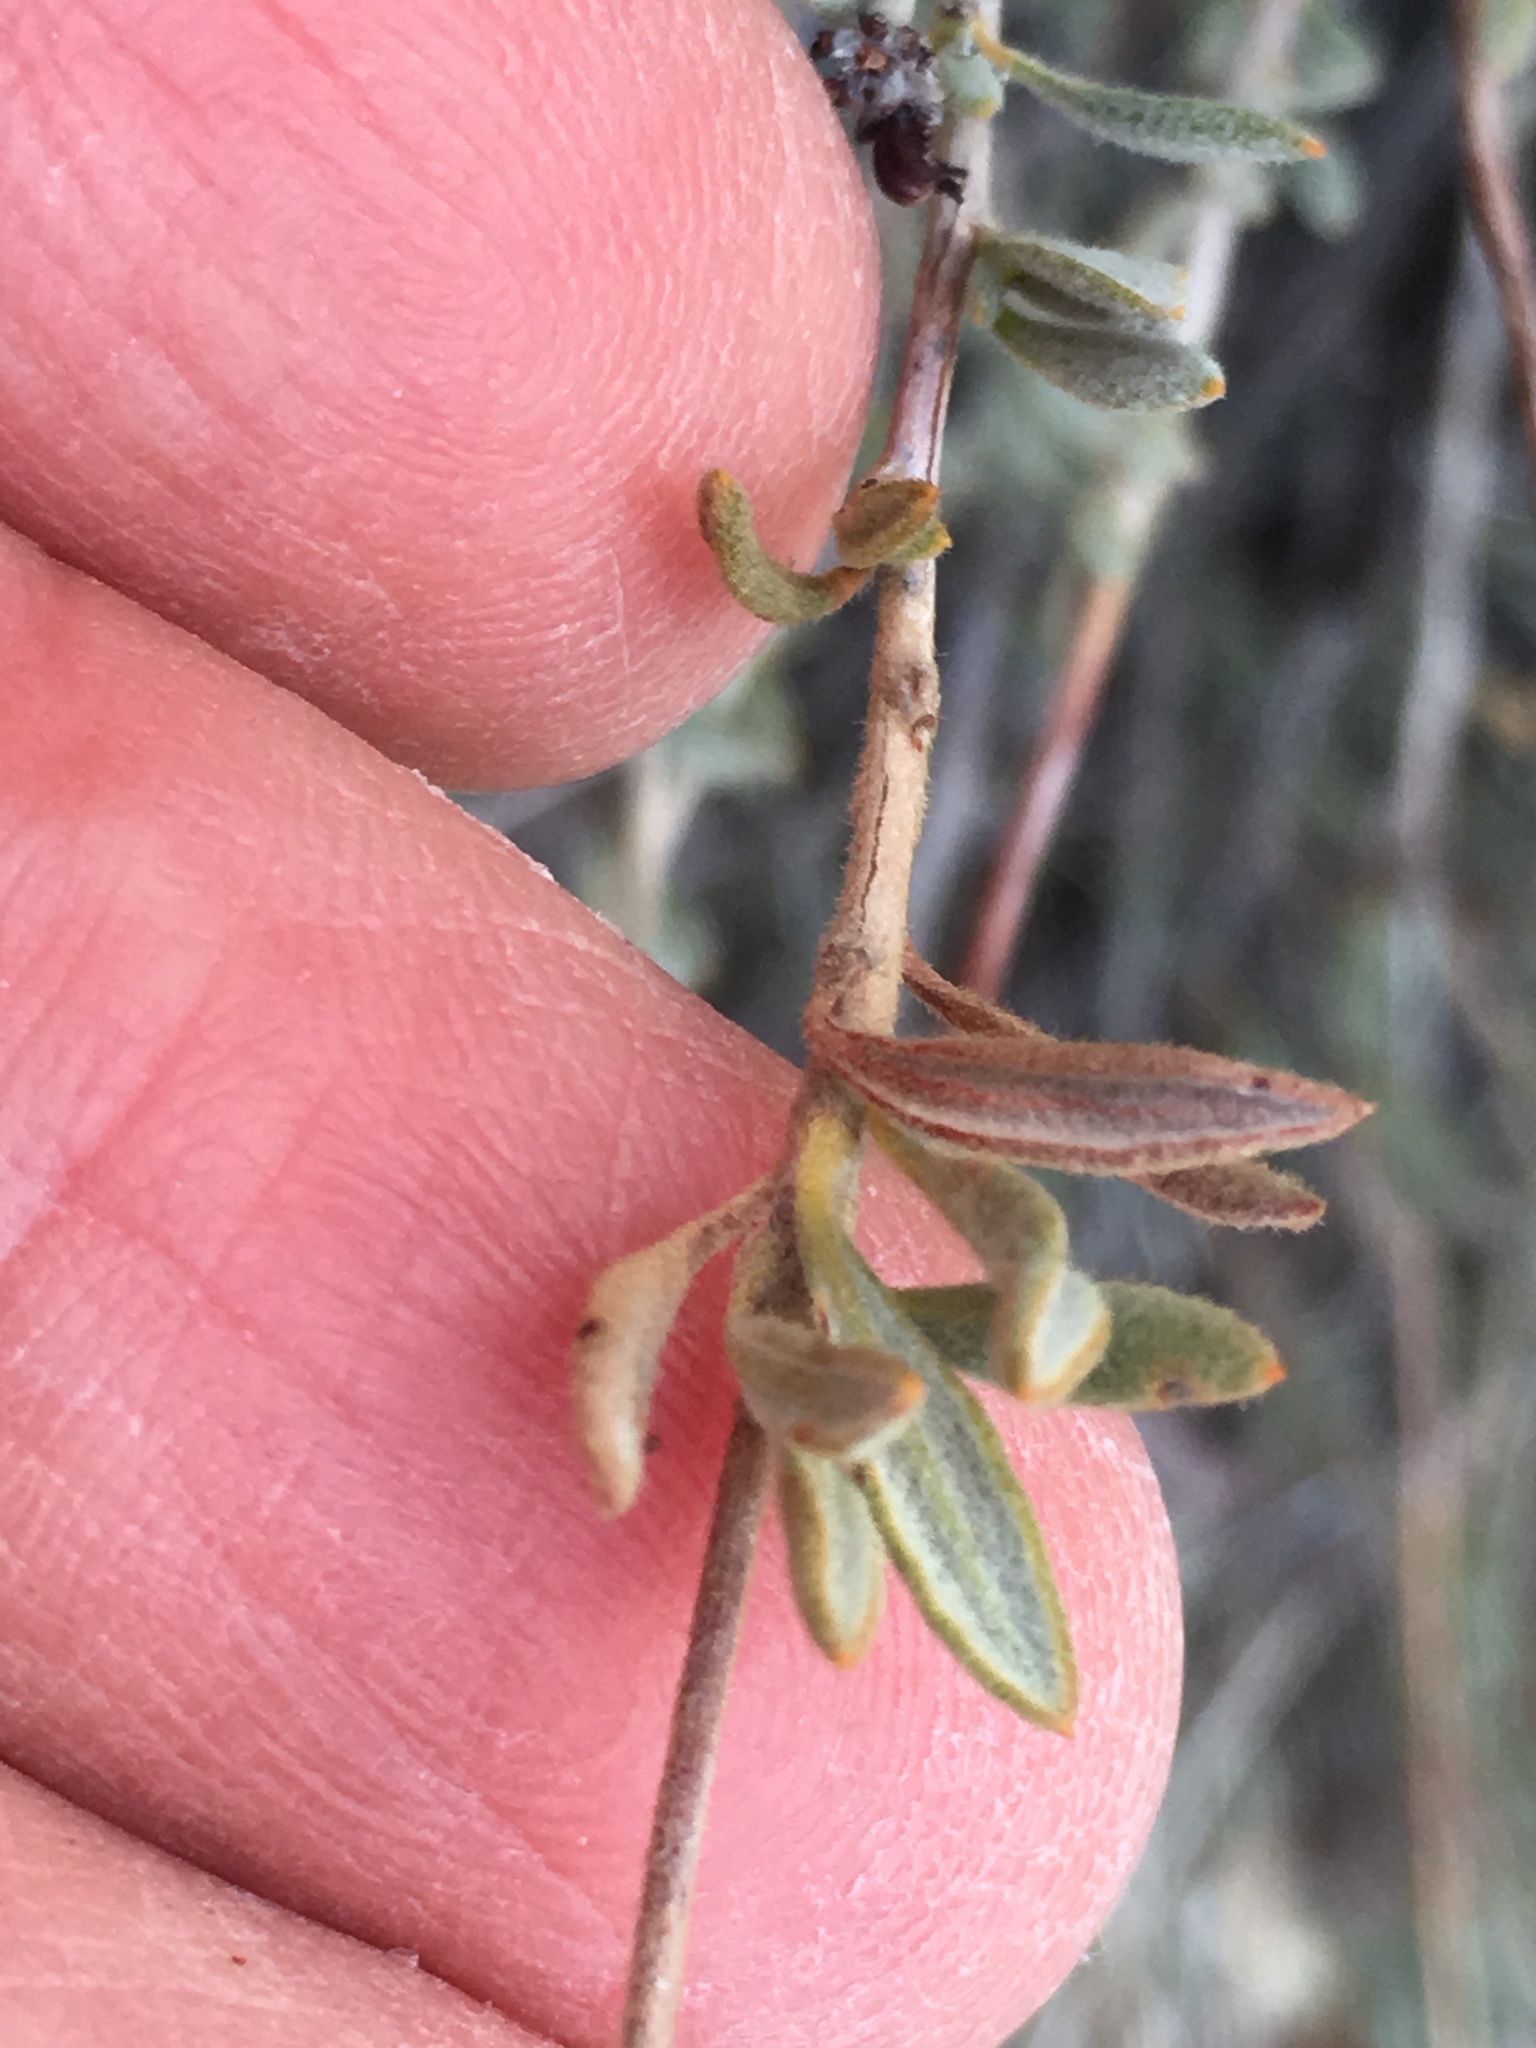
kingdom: Plantae
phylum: Tracheophyta
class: Magnoliopsida
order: Caryophyllales
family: Polygonaceae
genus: Eriogonum
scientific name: Eriogonum fasciculatum
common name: California wild buckwheat
